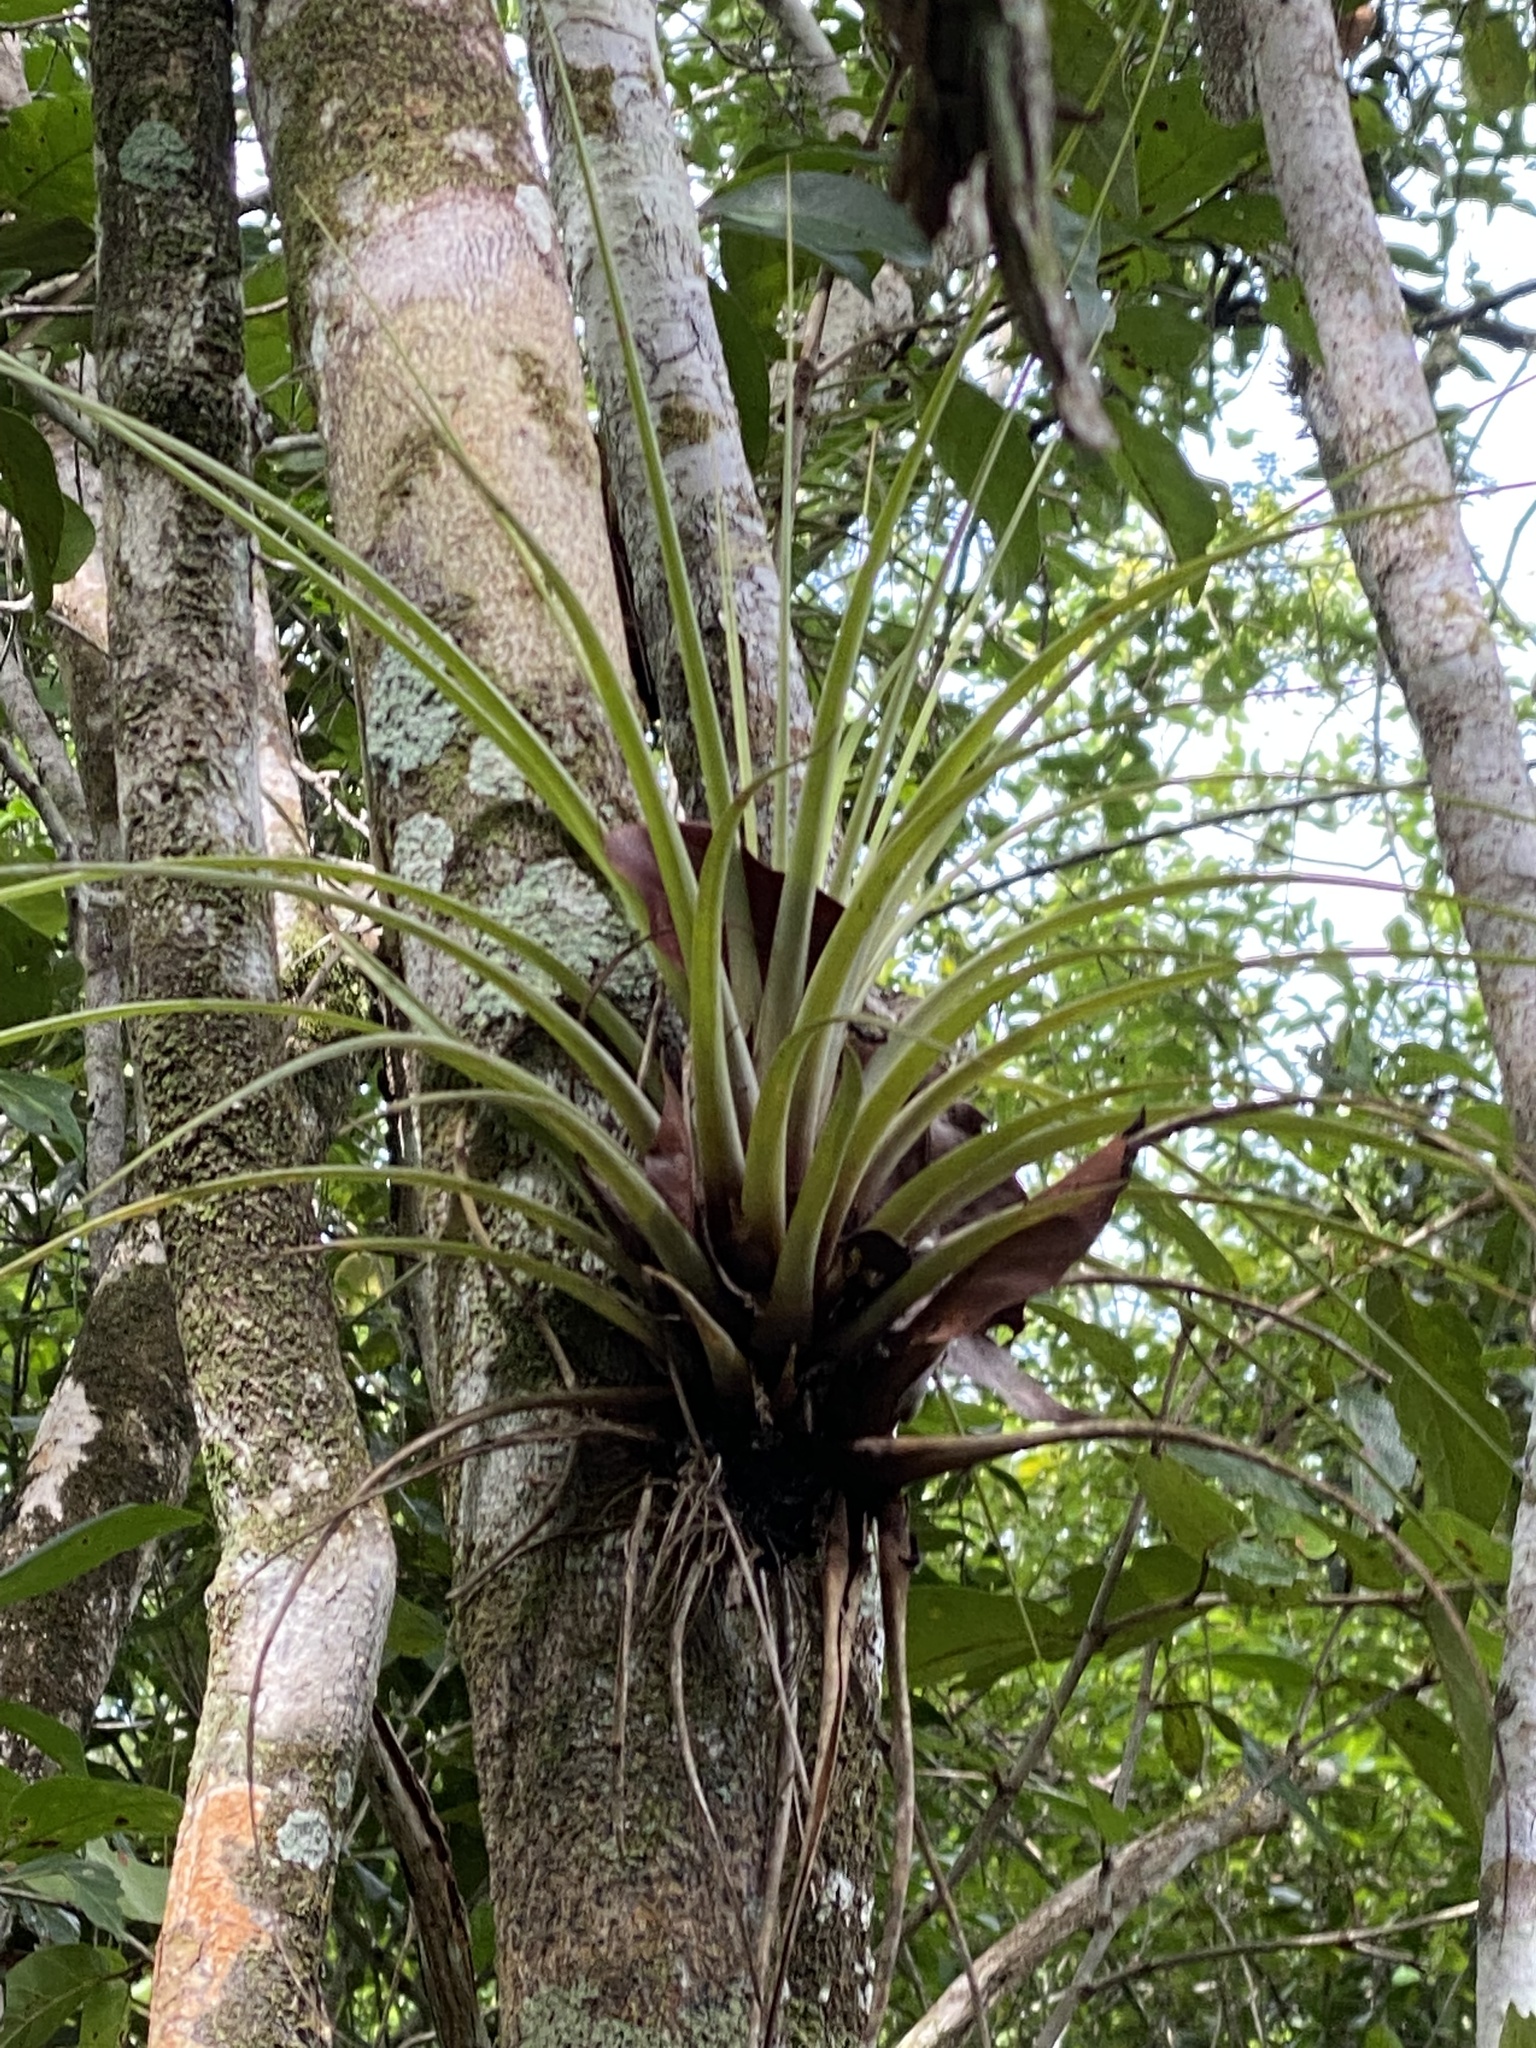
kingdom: Plantae
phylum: Tracheophyta
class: Liliopsida
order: Poales
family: Bromeliaceae
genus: Tillandsia
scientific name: Tillandsia fasciculata
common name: Giant airplant
